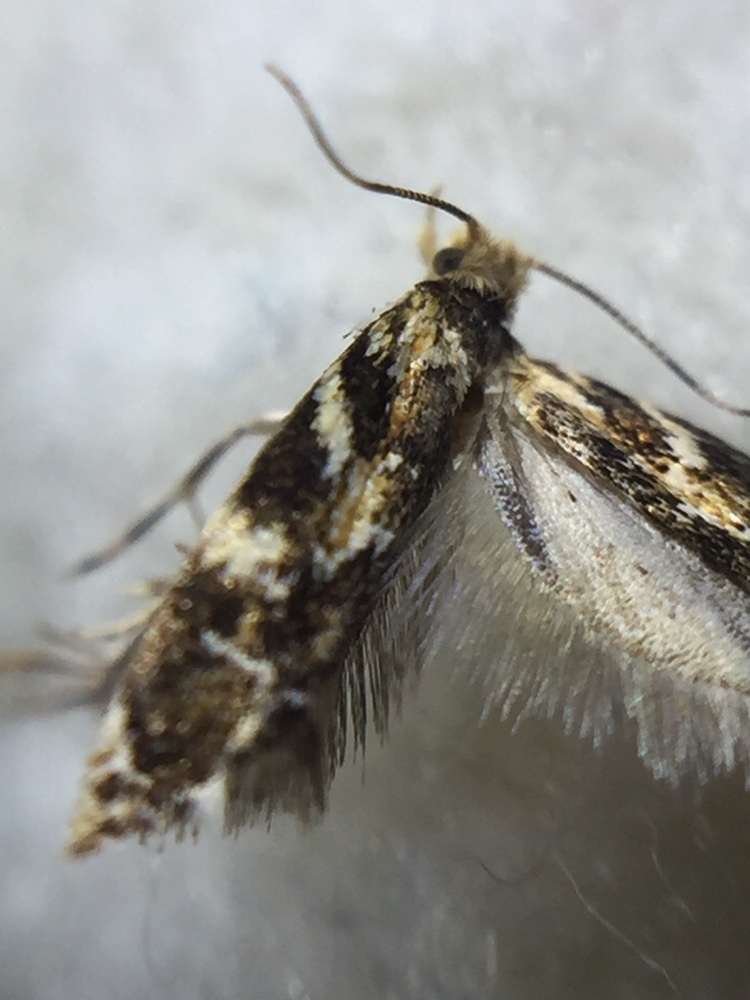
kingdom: Animalia
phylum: Arthropoda
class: Insecta
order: Lepidoptera
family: Dryadaulidae
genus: Dryadaula
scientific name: Dryadaula pactolia
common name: Cellar clothes
